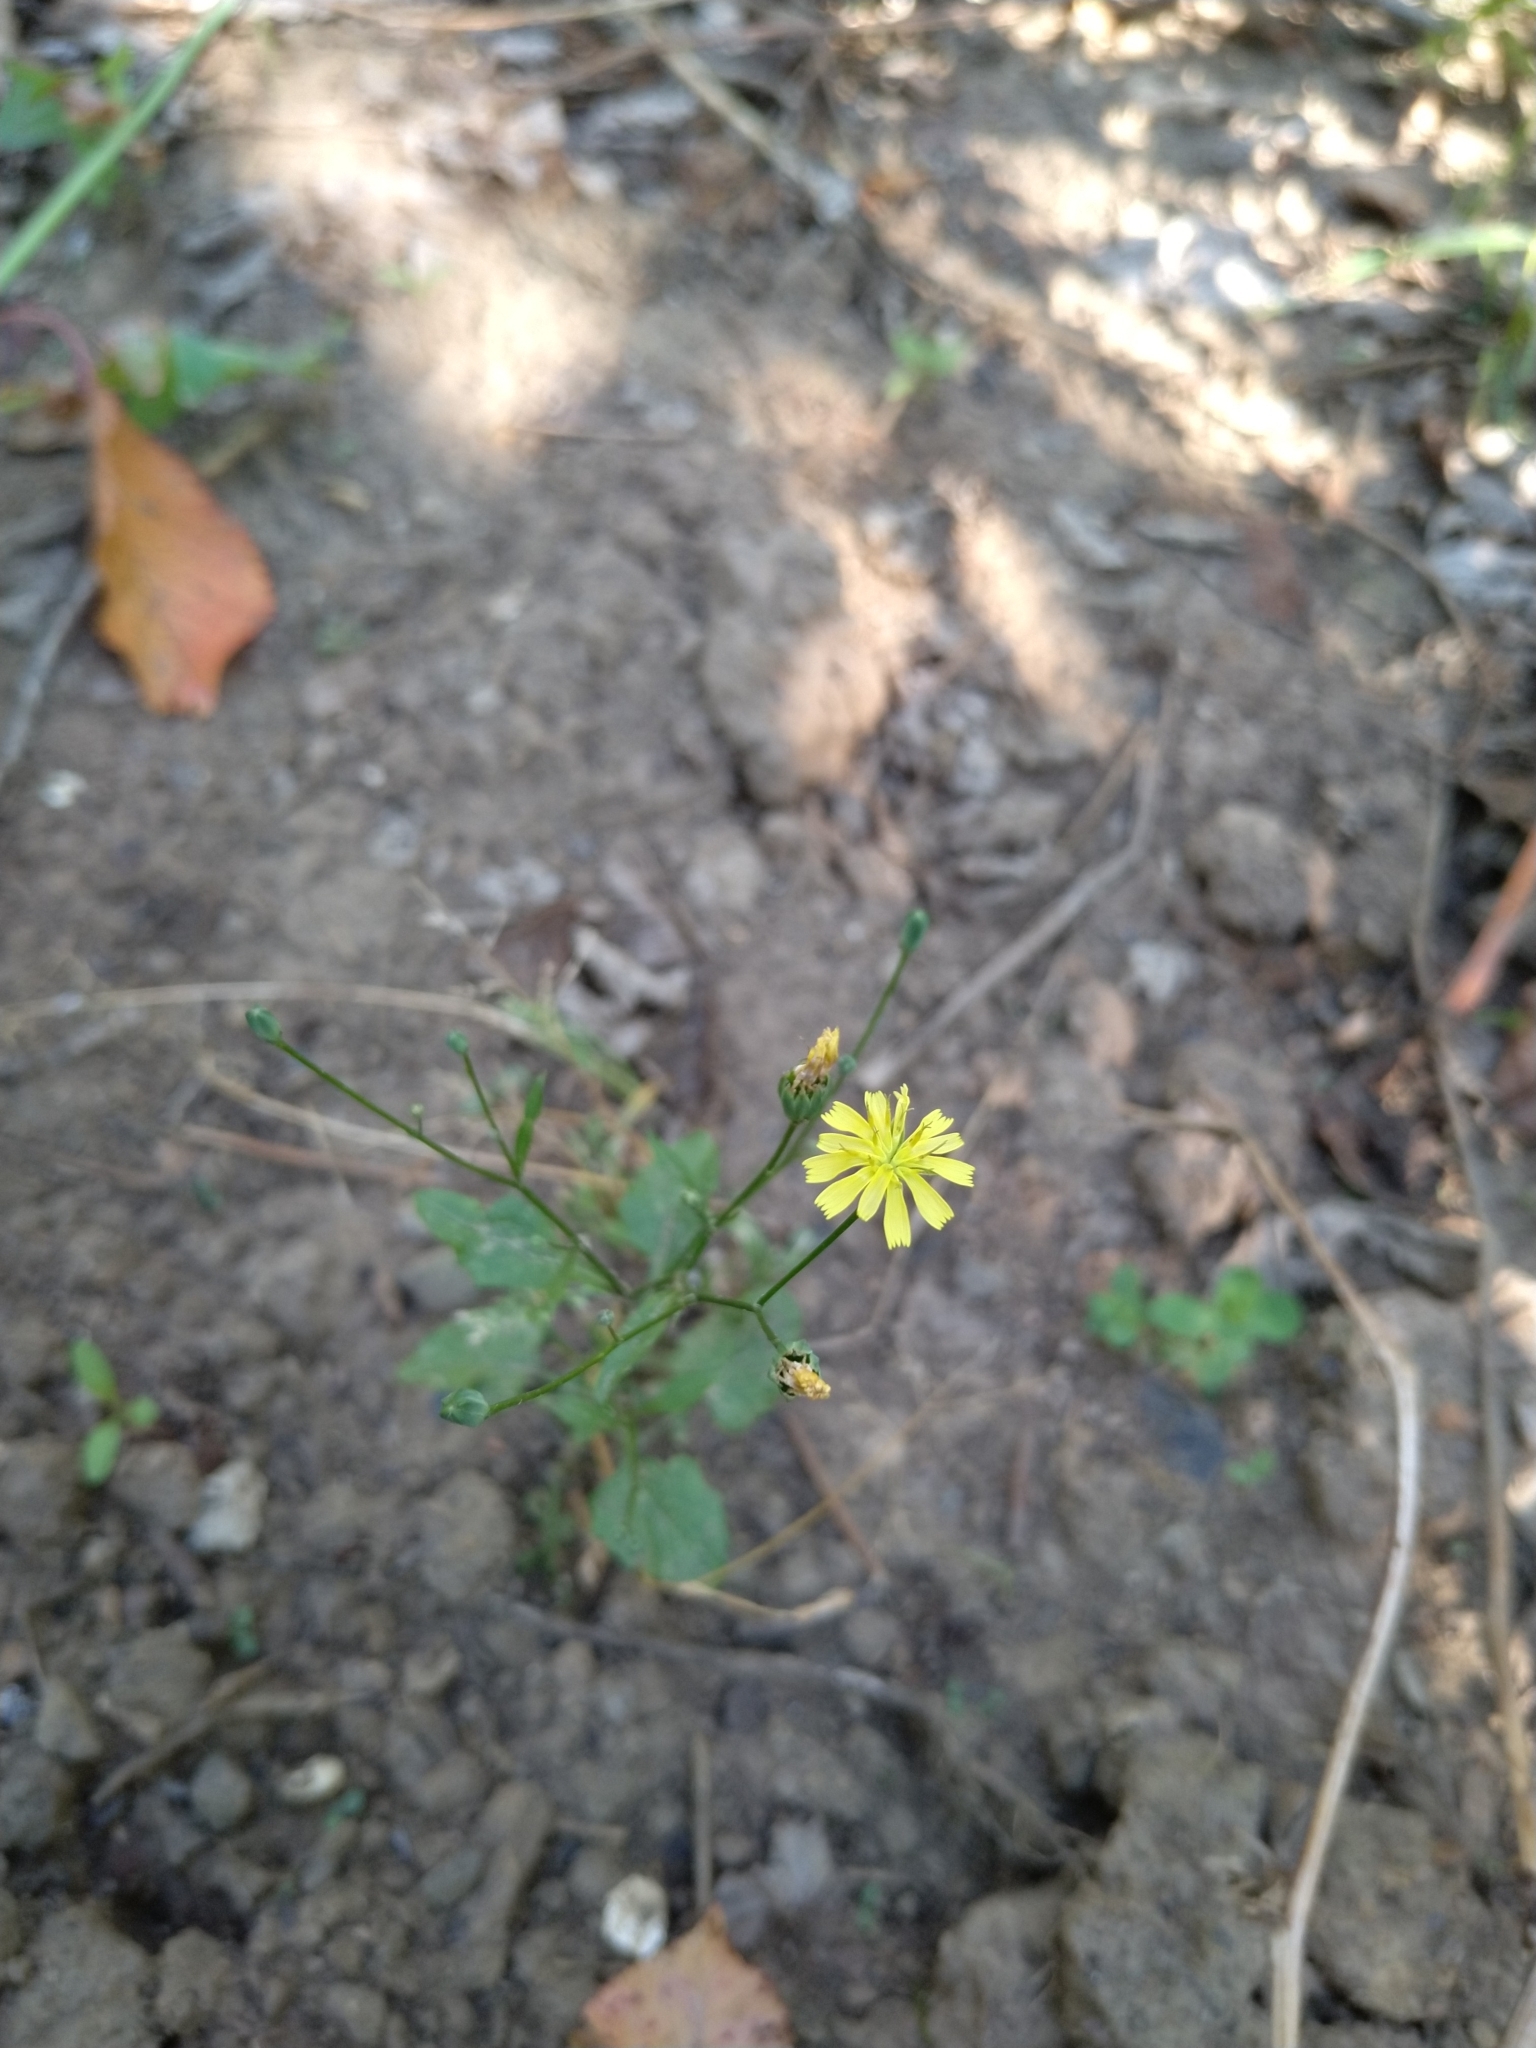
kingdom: Plantae
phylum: Tracheophyta
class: Magnoliopsida
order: Asterales
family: Asteraceae
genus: Lapsana
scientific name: Lapsana communis
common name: Nipplewort
